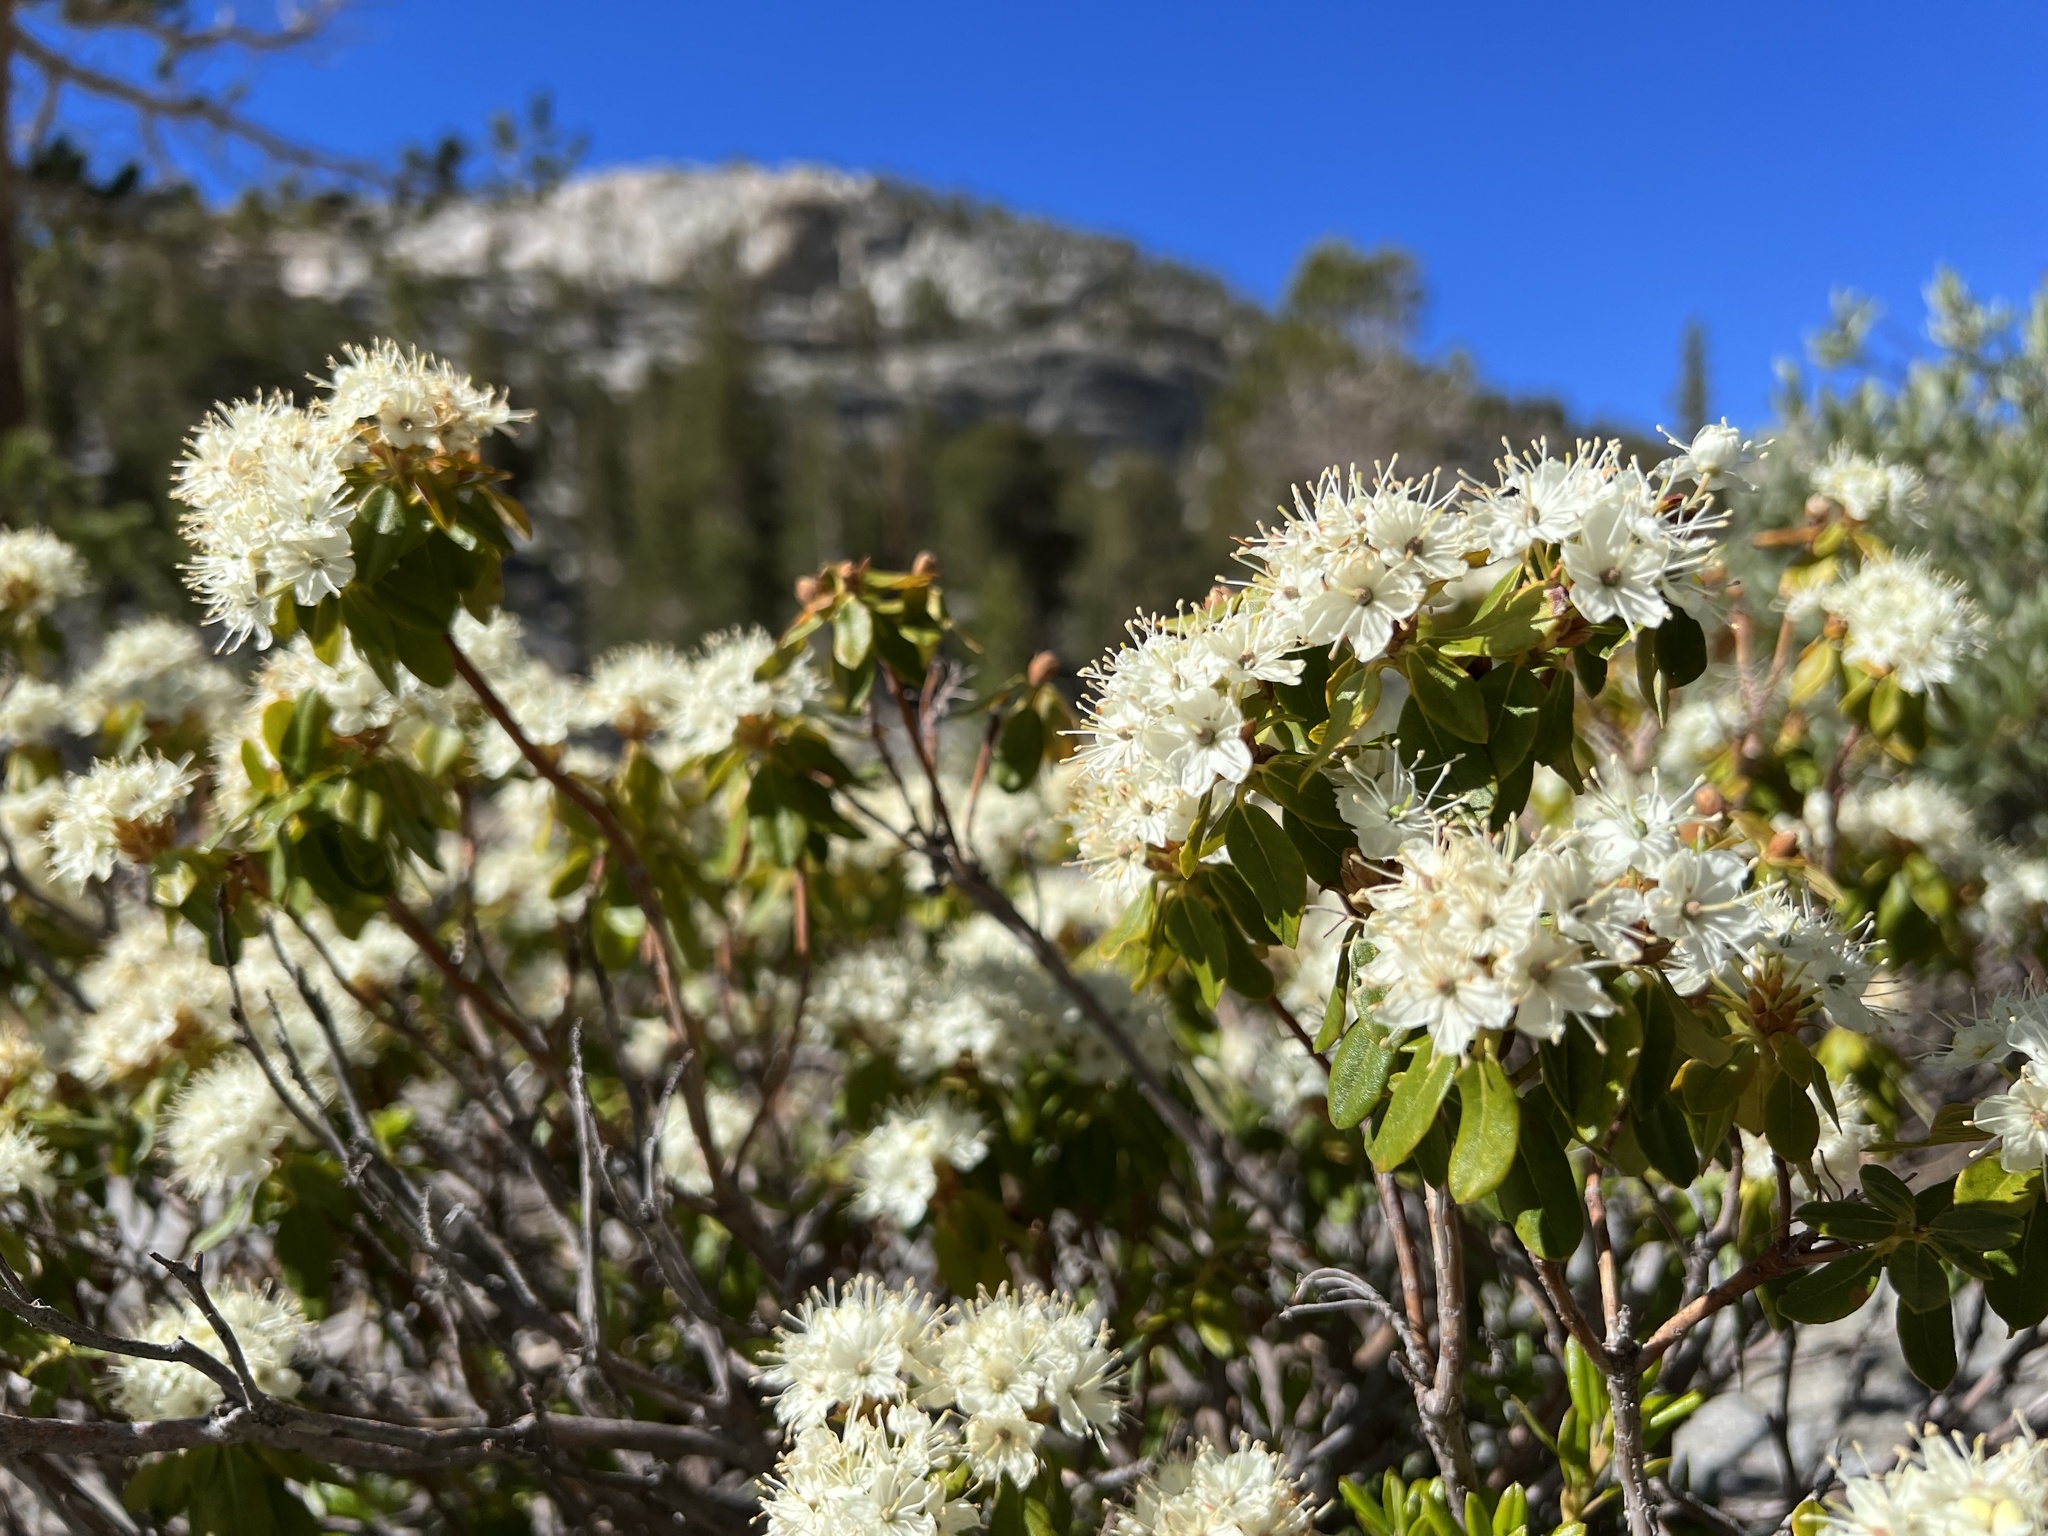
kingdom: Plantae
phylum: Tracheophyta
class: Magnoliopsida
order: Ericales
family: Ericaceae
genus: Rhododendron
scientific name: Rhododendron columbianum
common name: Western labrador tea
